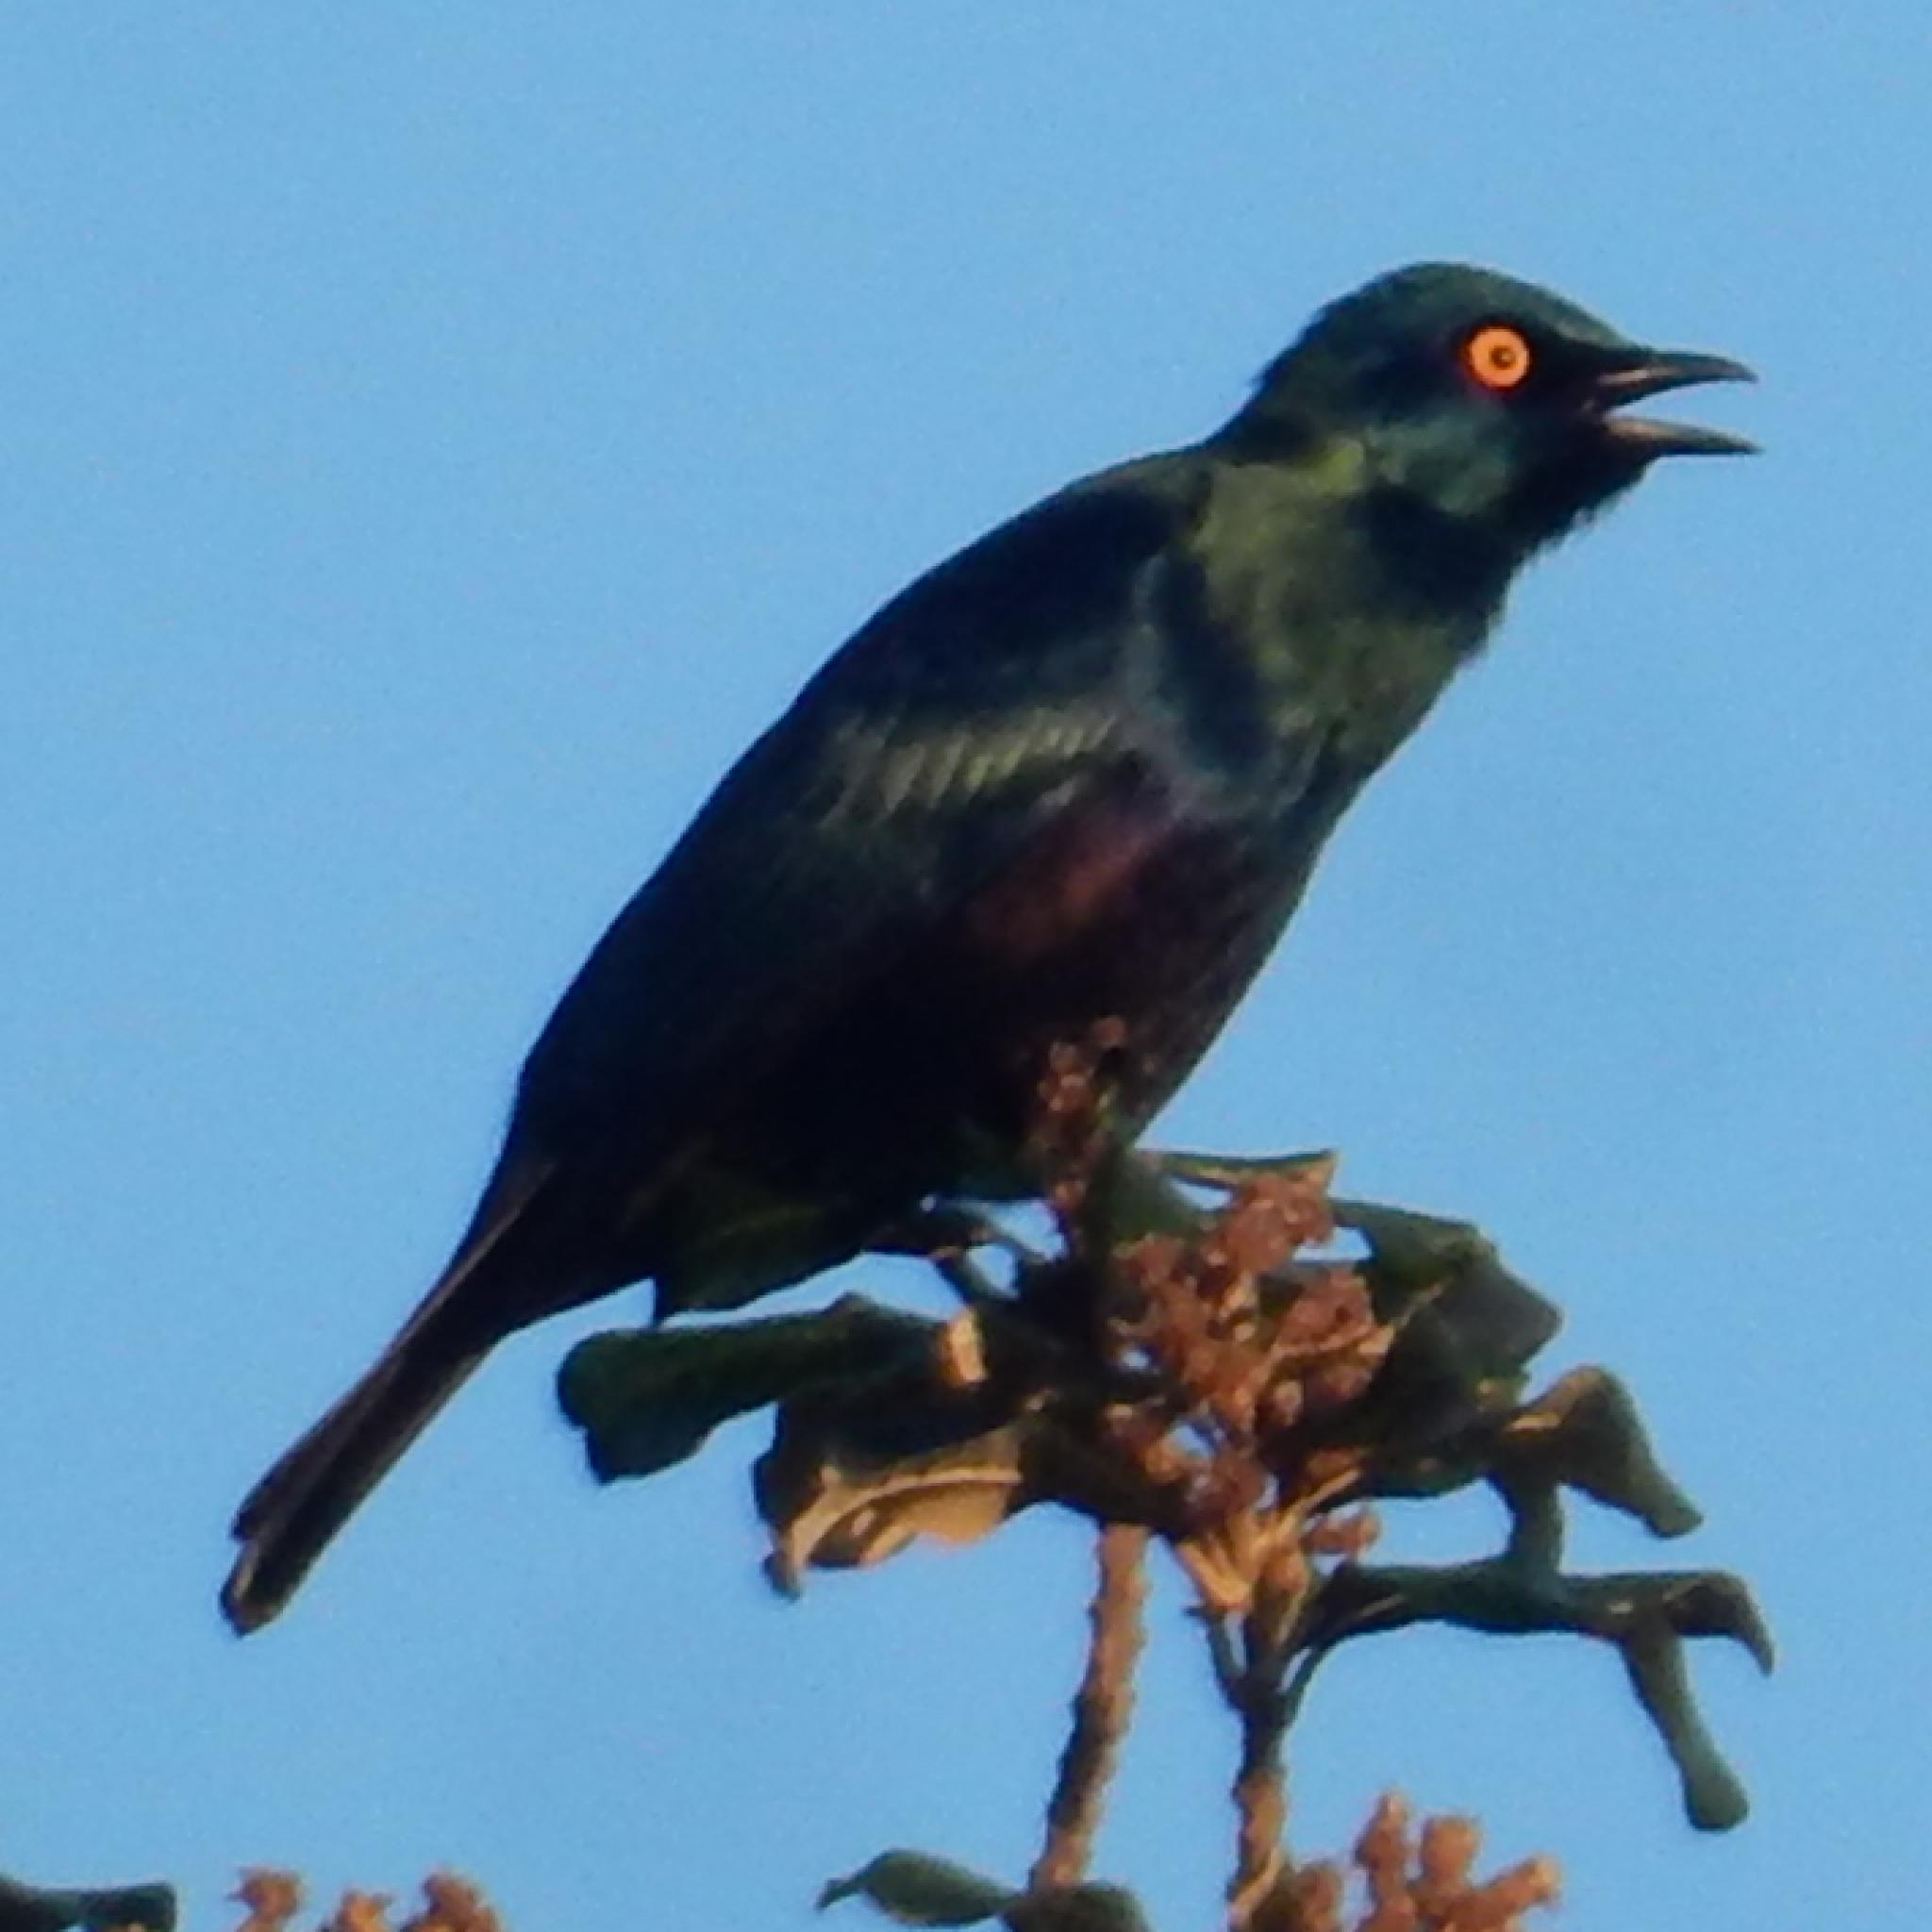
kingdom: Animalia
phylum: Chordata
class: Aves
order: Passeriformes
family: Sturnidae
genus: Notopholia
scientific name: Notopholia corrusca
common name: Black-bellied starling
